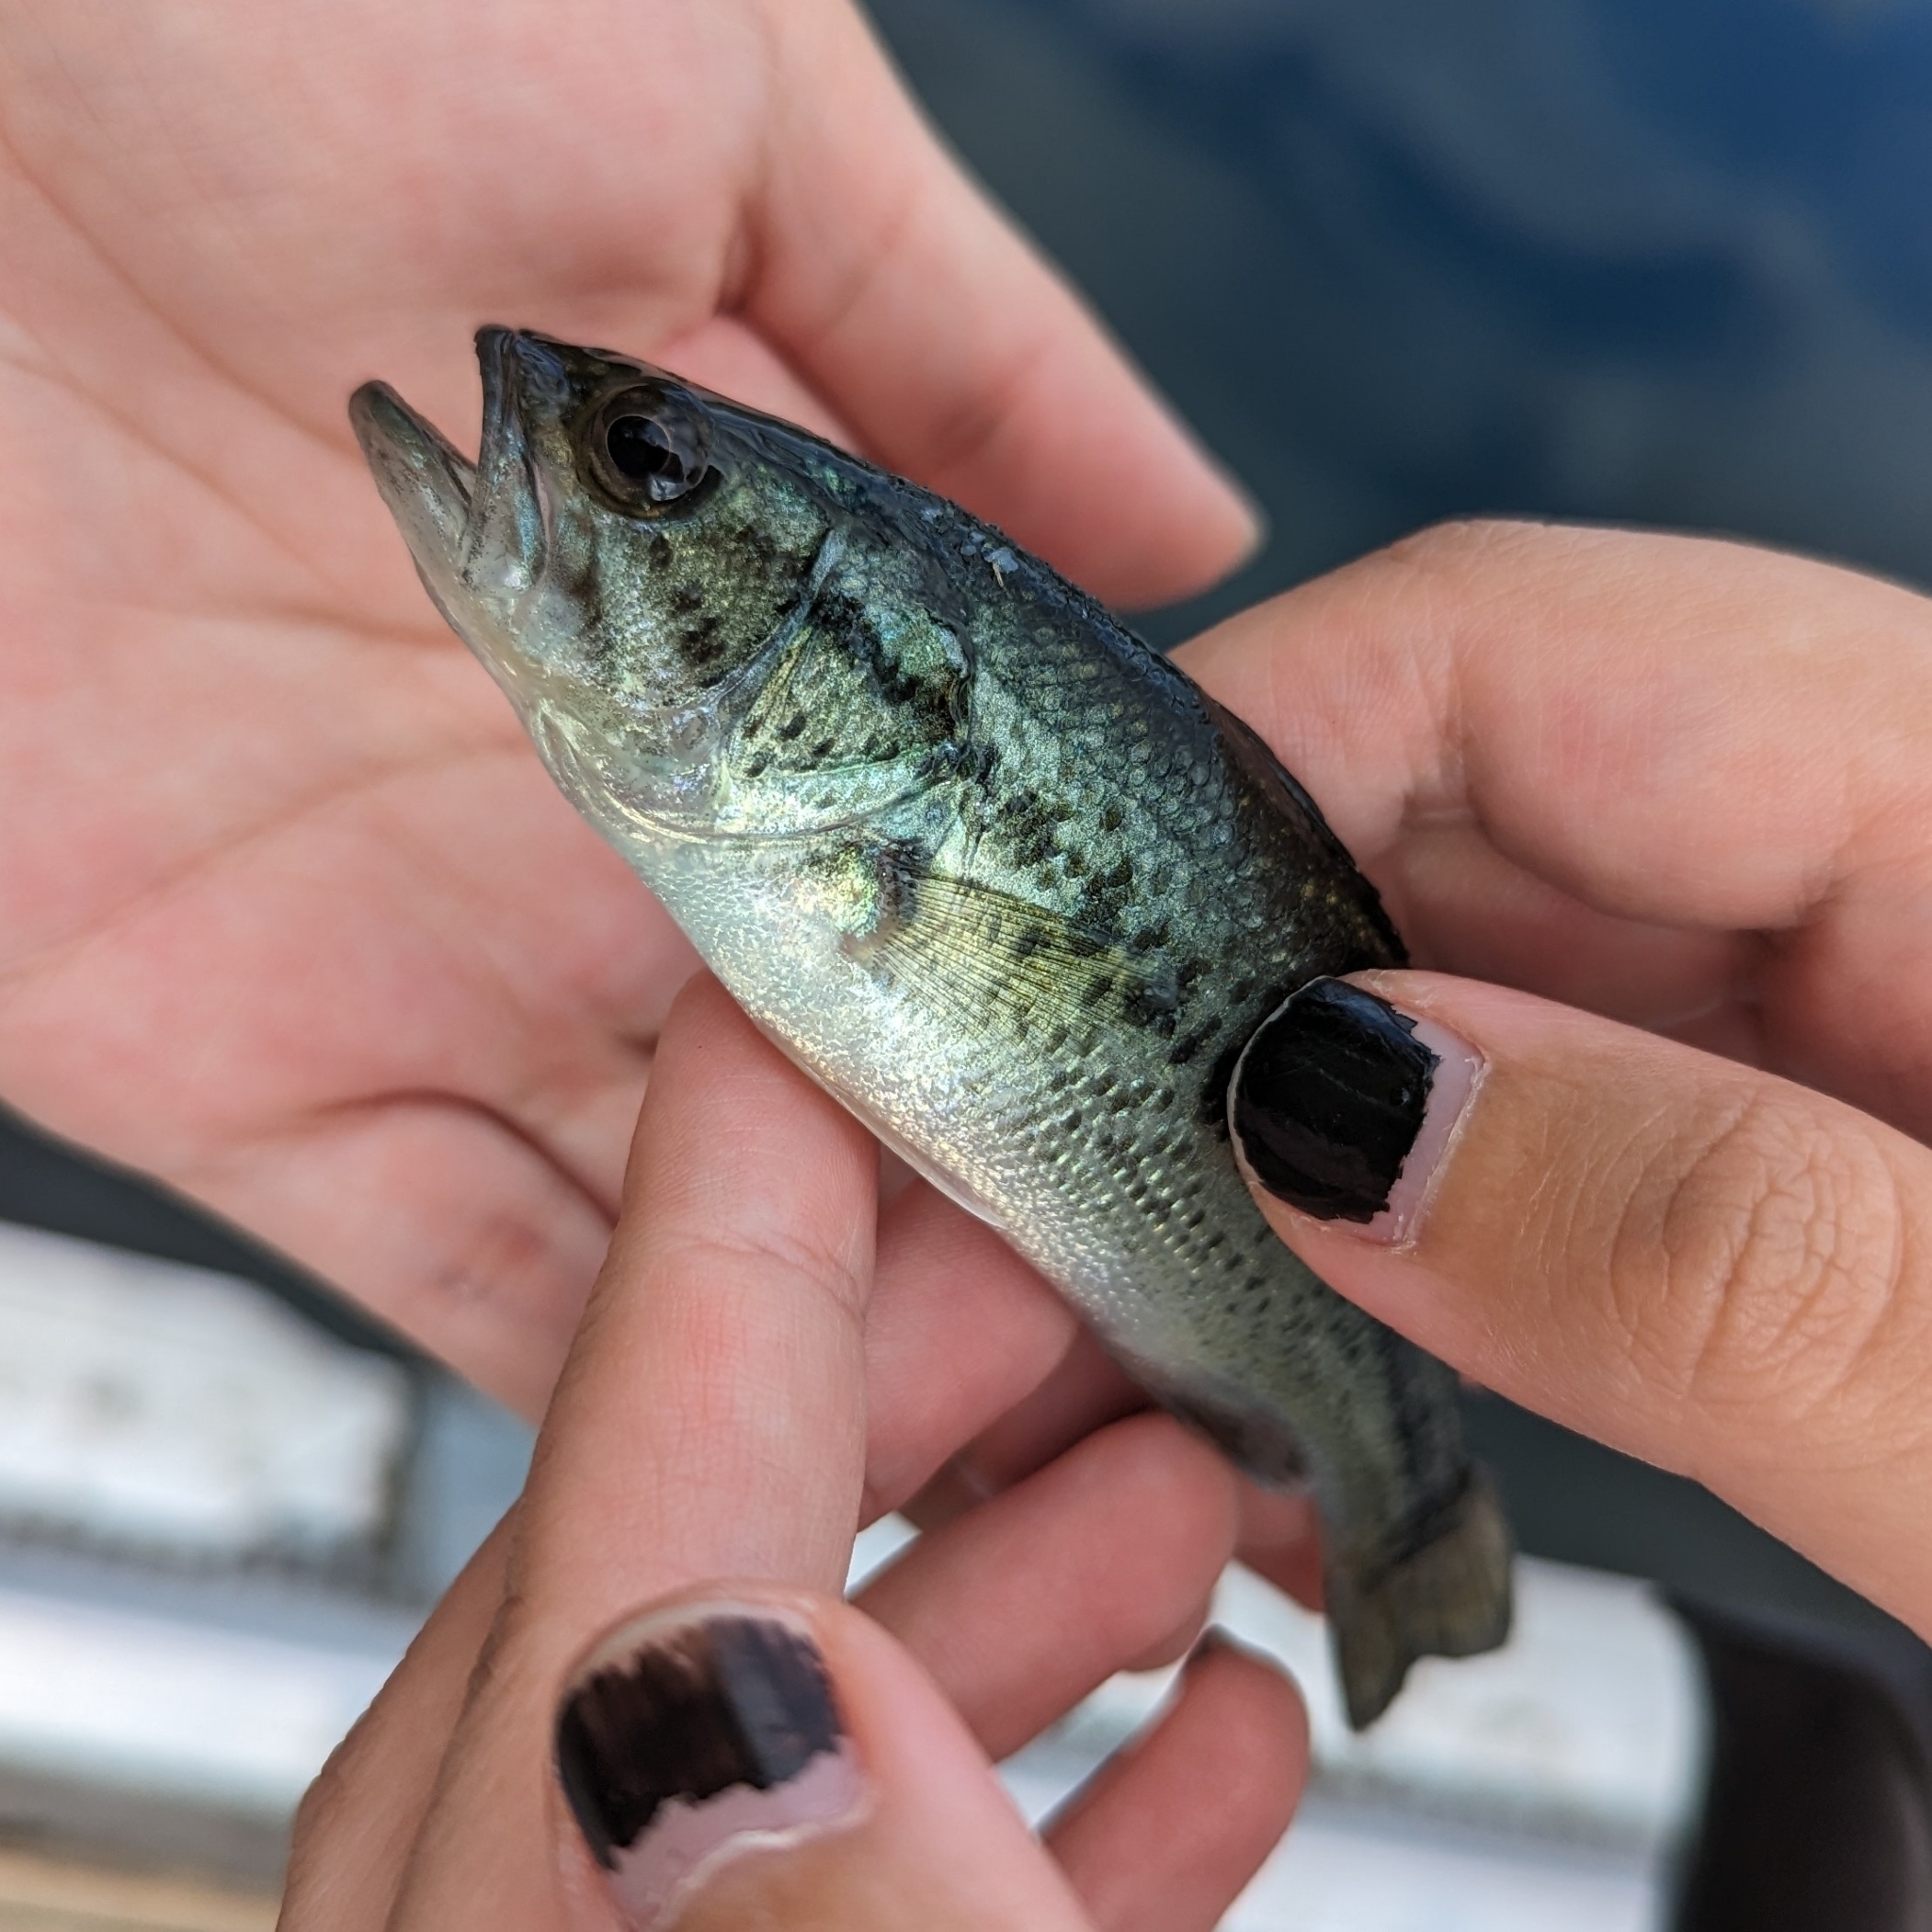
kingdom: Animalia
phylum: Chordata
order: Perciformes
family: Centrarchidae
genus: Micropterus
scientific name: Micropterus
